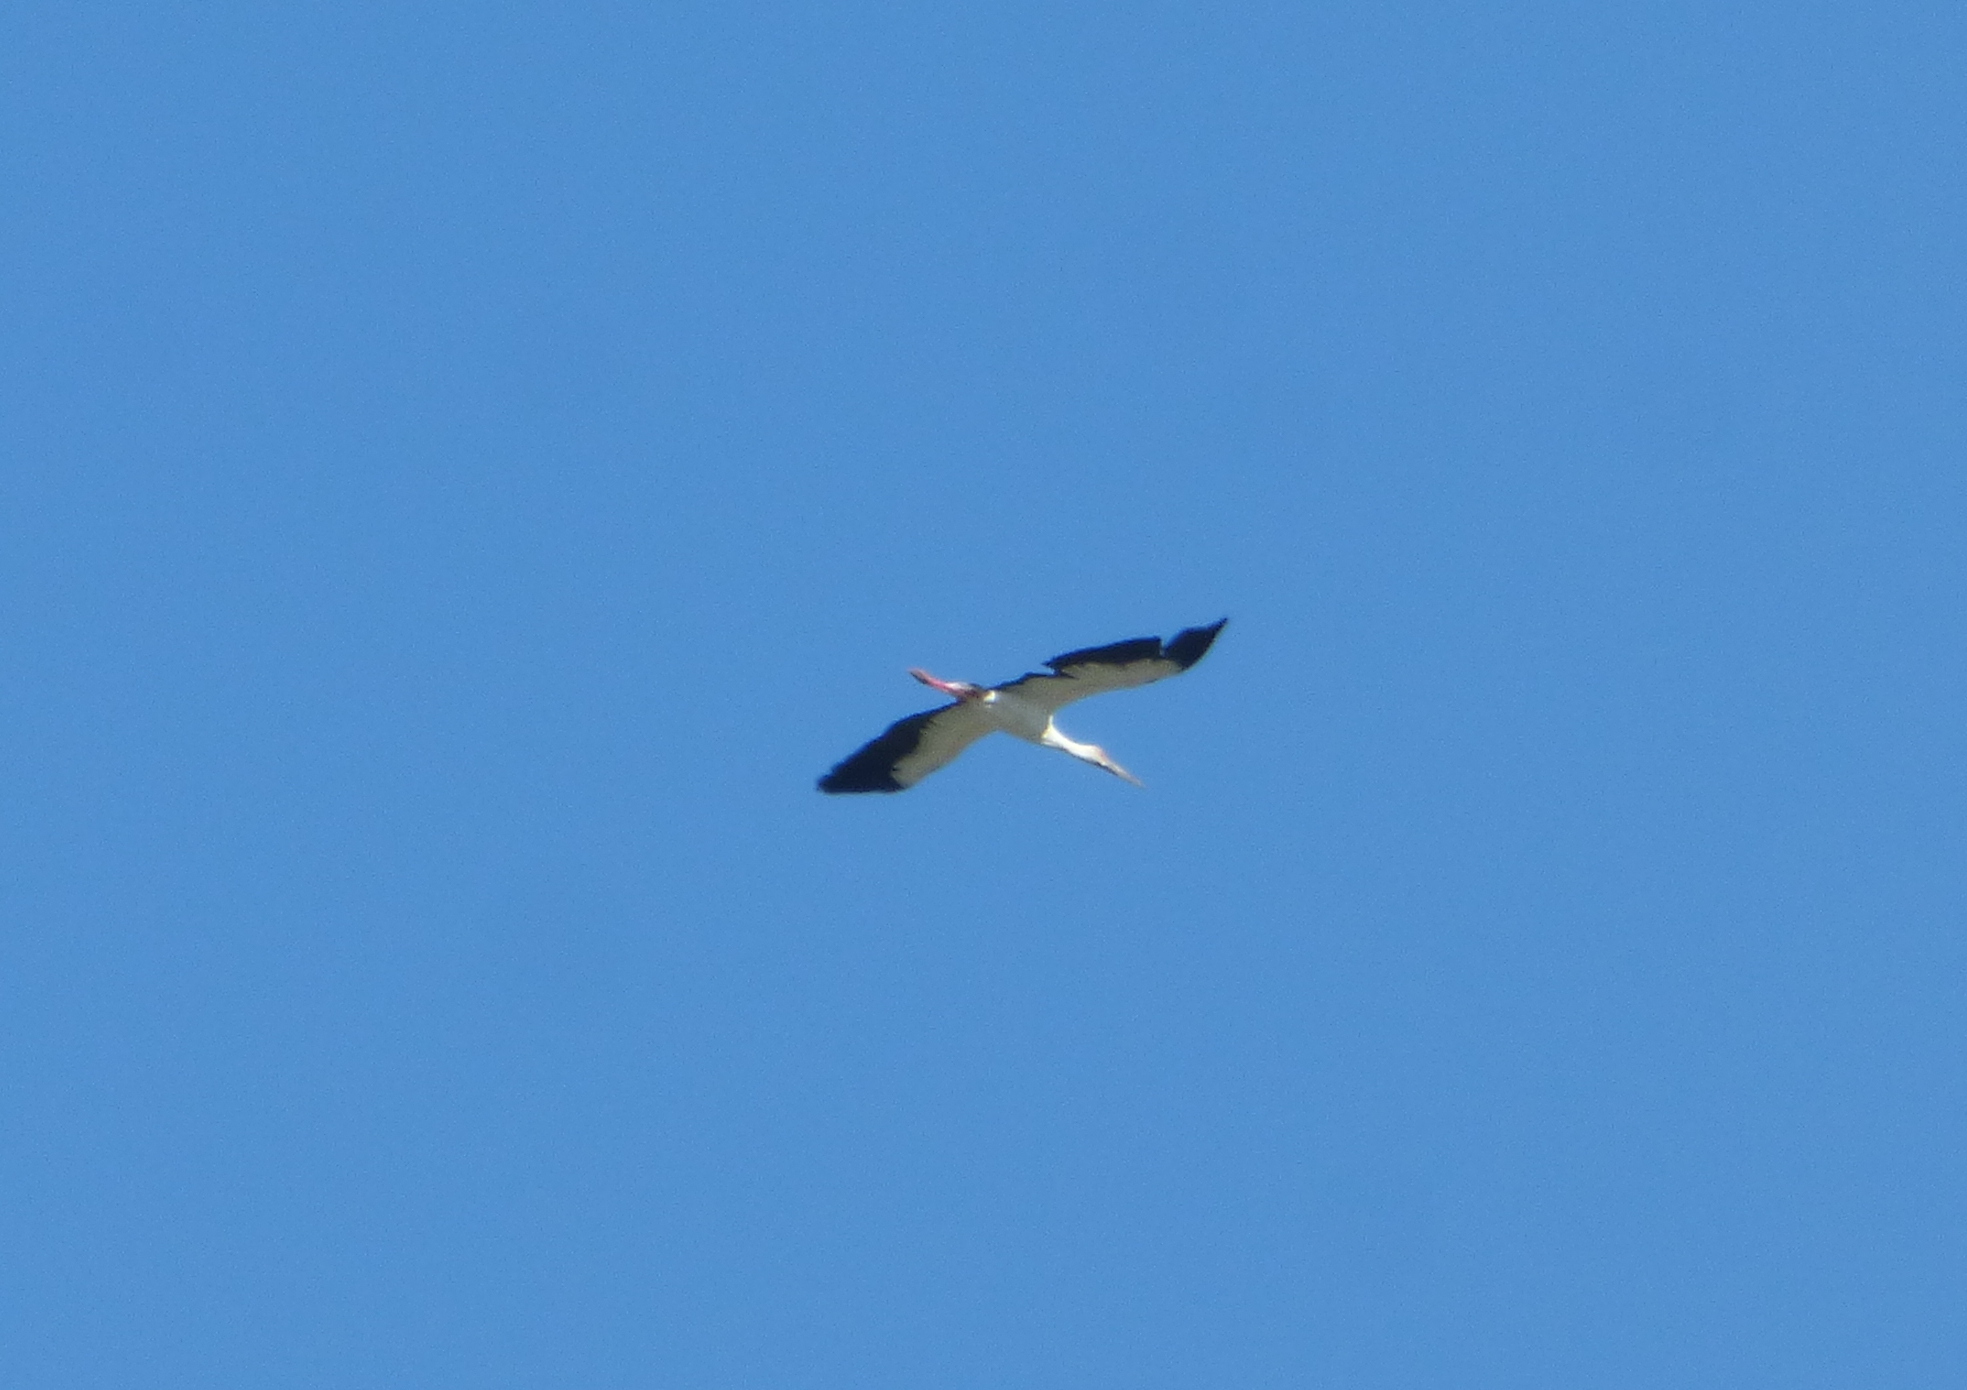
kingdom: Animalia
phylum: Chordata
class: Aves
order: Ciconiiformes
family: Ciconiidae
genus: Ciconia
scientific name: Ciconia maguari
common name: Maguari stork
